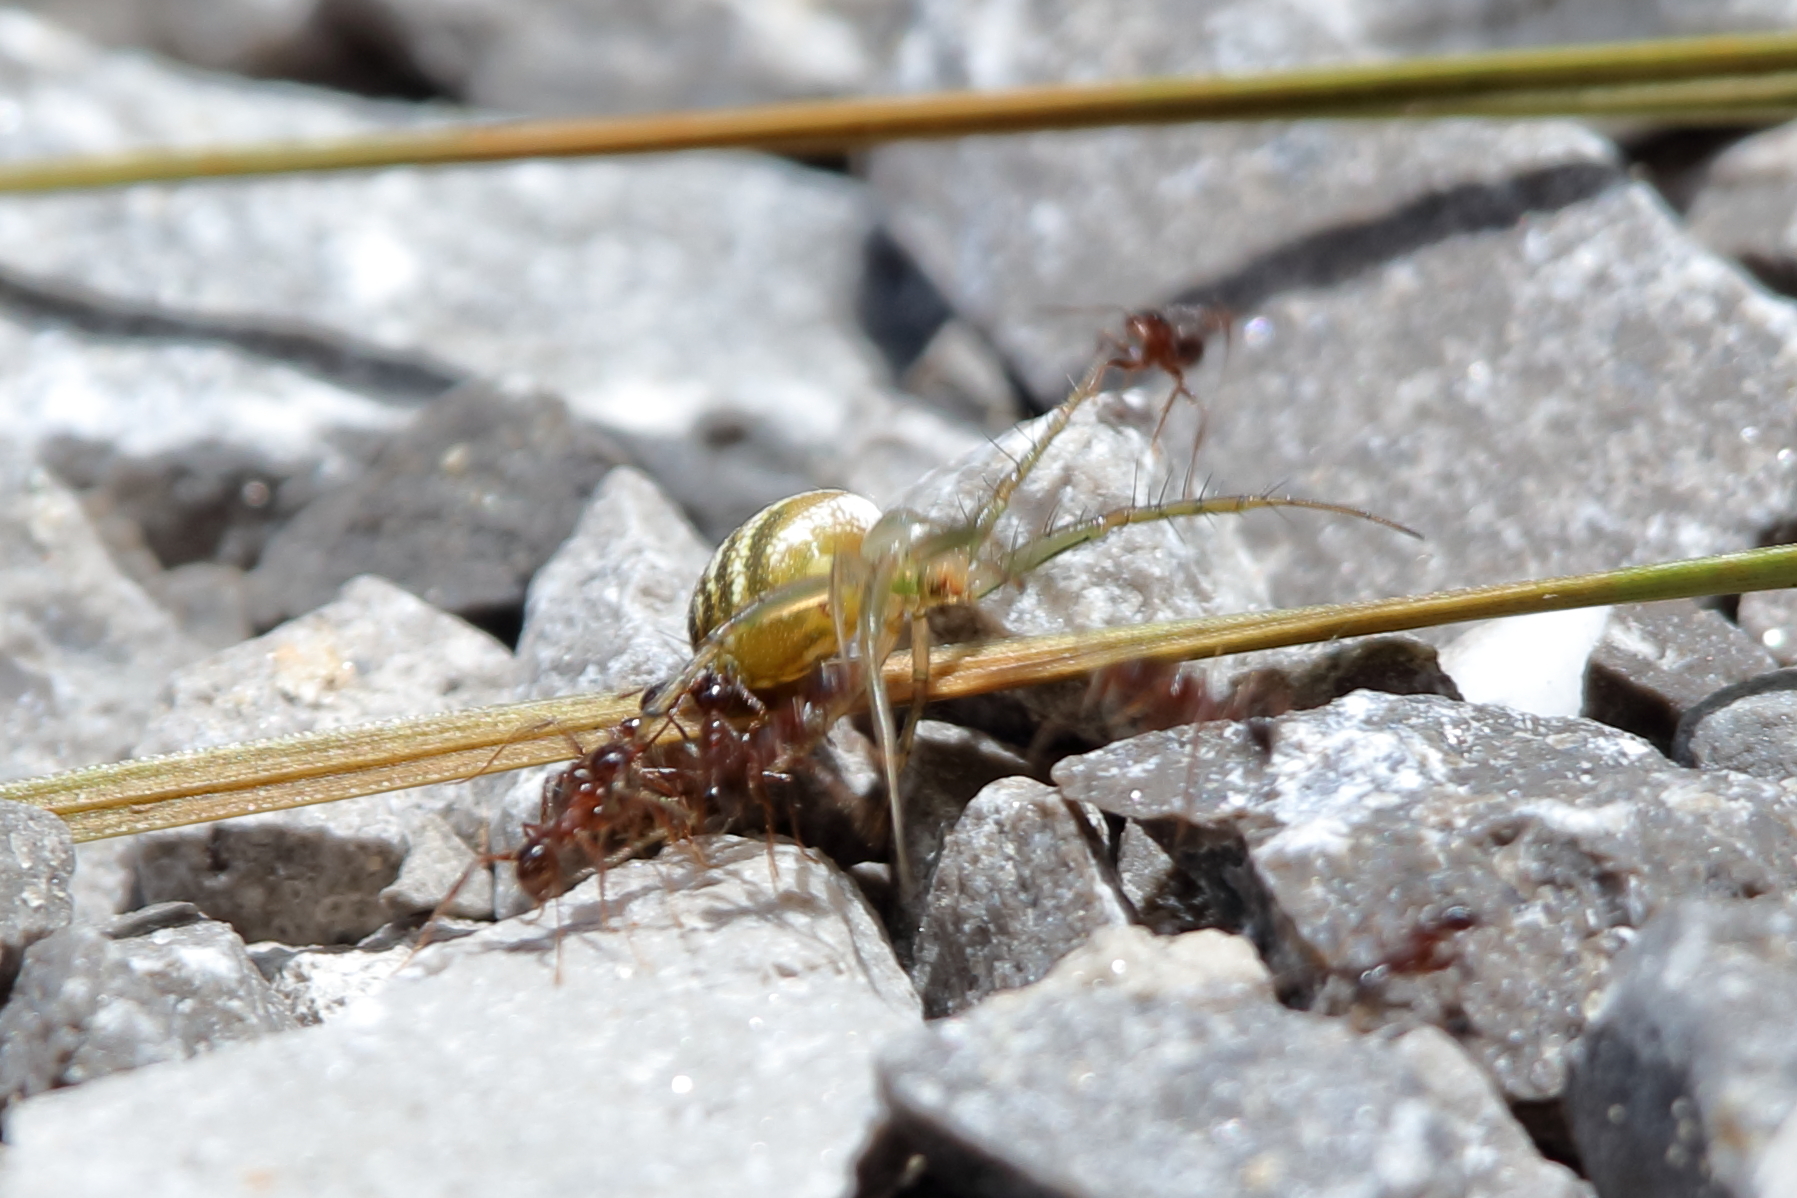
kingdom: Animalia
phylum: Arthropoda
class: Arachnida
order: Araneae
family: Araneidae
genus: Mangora
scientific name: Mangora gibberosa
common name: Lined orbweaver
